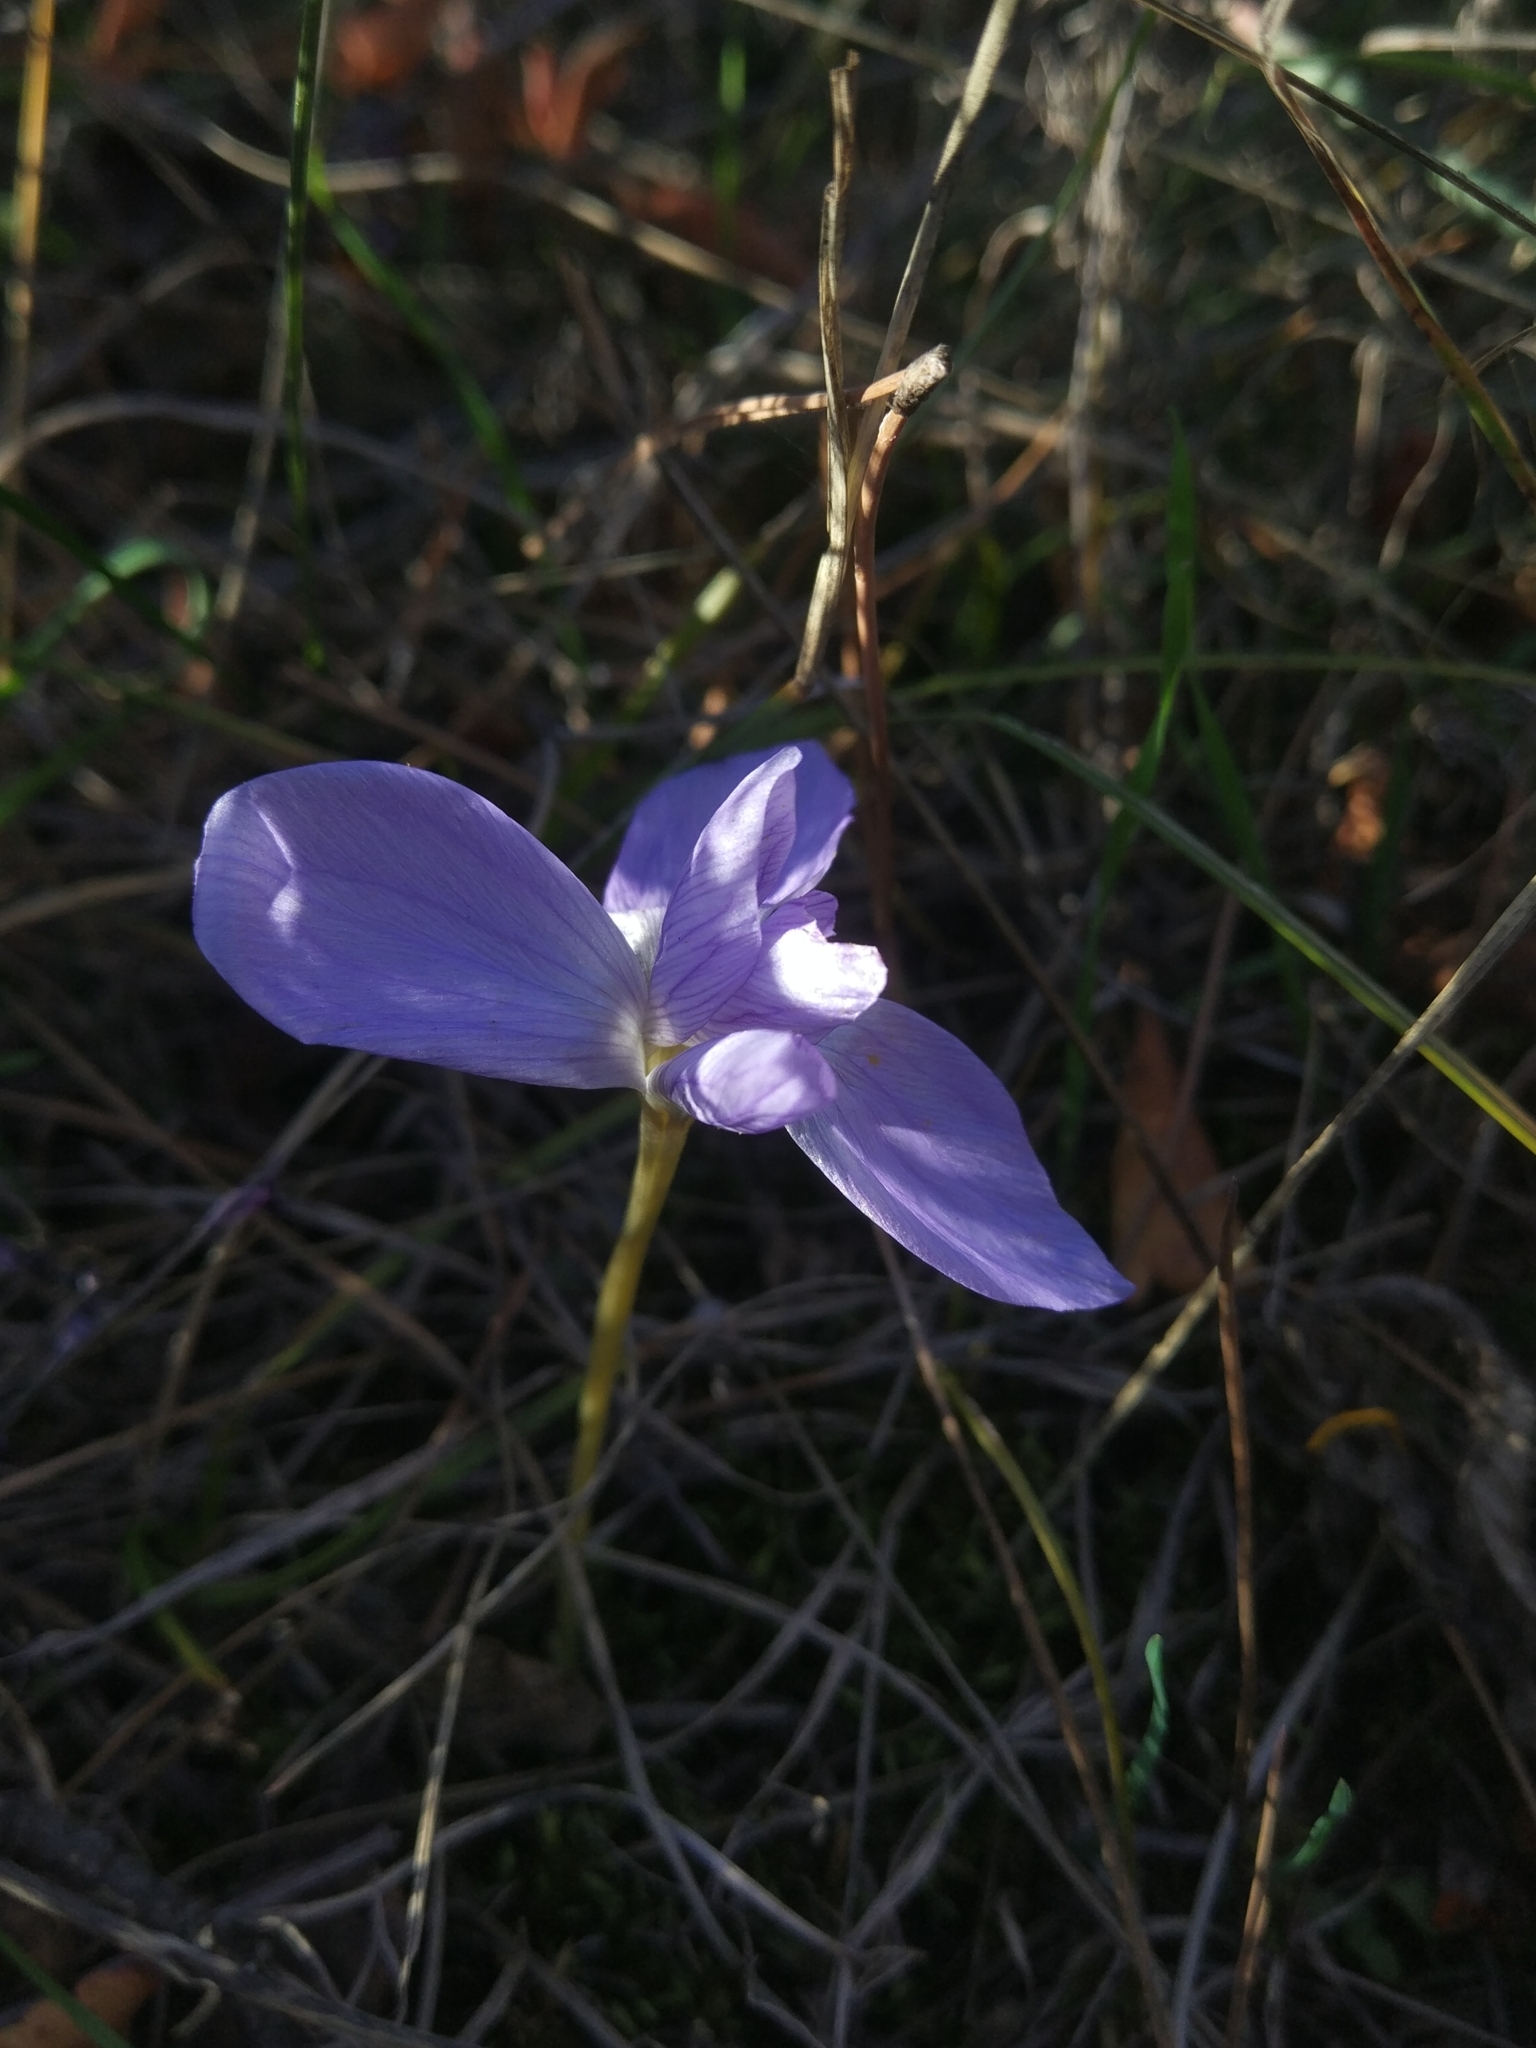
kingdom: Plantae
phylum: Tracheophyta
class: Liliopsida
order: Asparagales
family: Iridaceae
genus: Crocus
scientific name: Crocus speciosus
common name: Bieberstein's crocus
